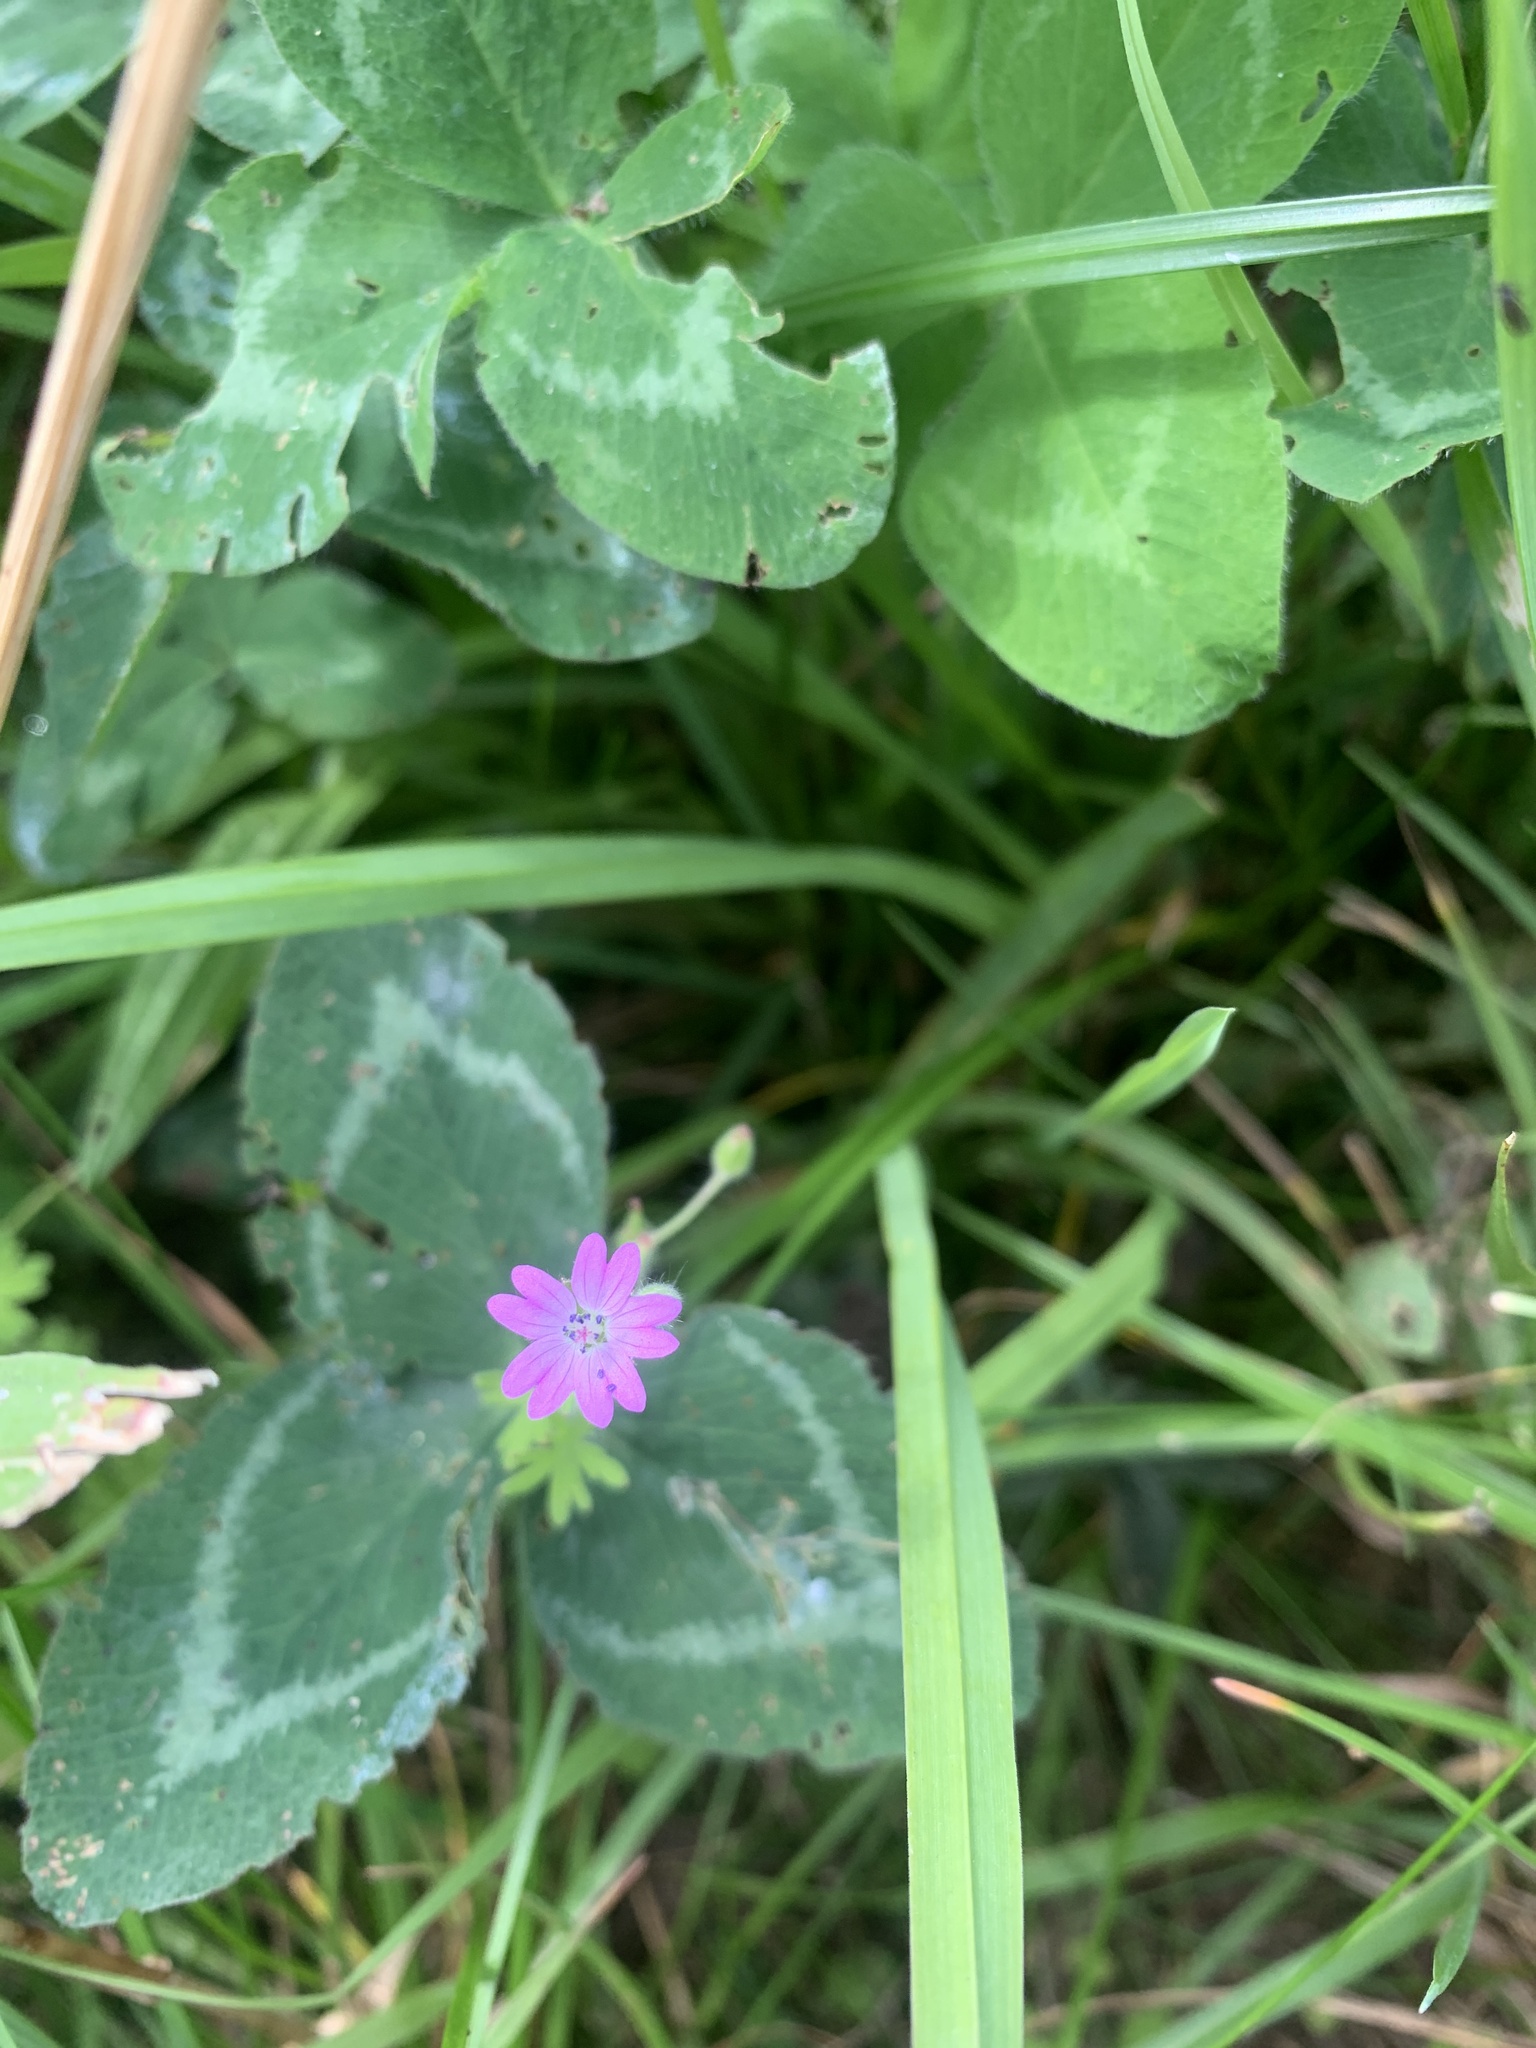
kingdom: Plantae
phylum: Tracheophyta
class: Magnoliopsida
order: Fabales
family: Fabaceae
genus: Trifolium
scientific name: Trifolium pratense
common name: Red clover
